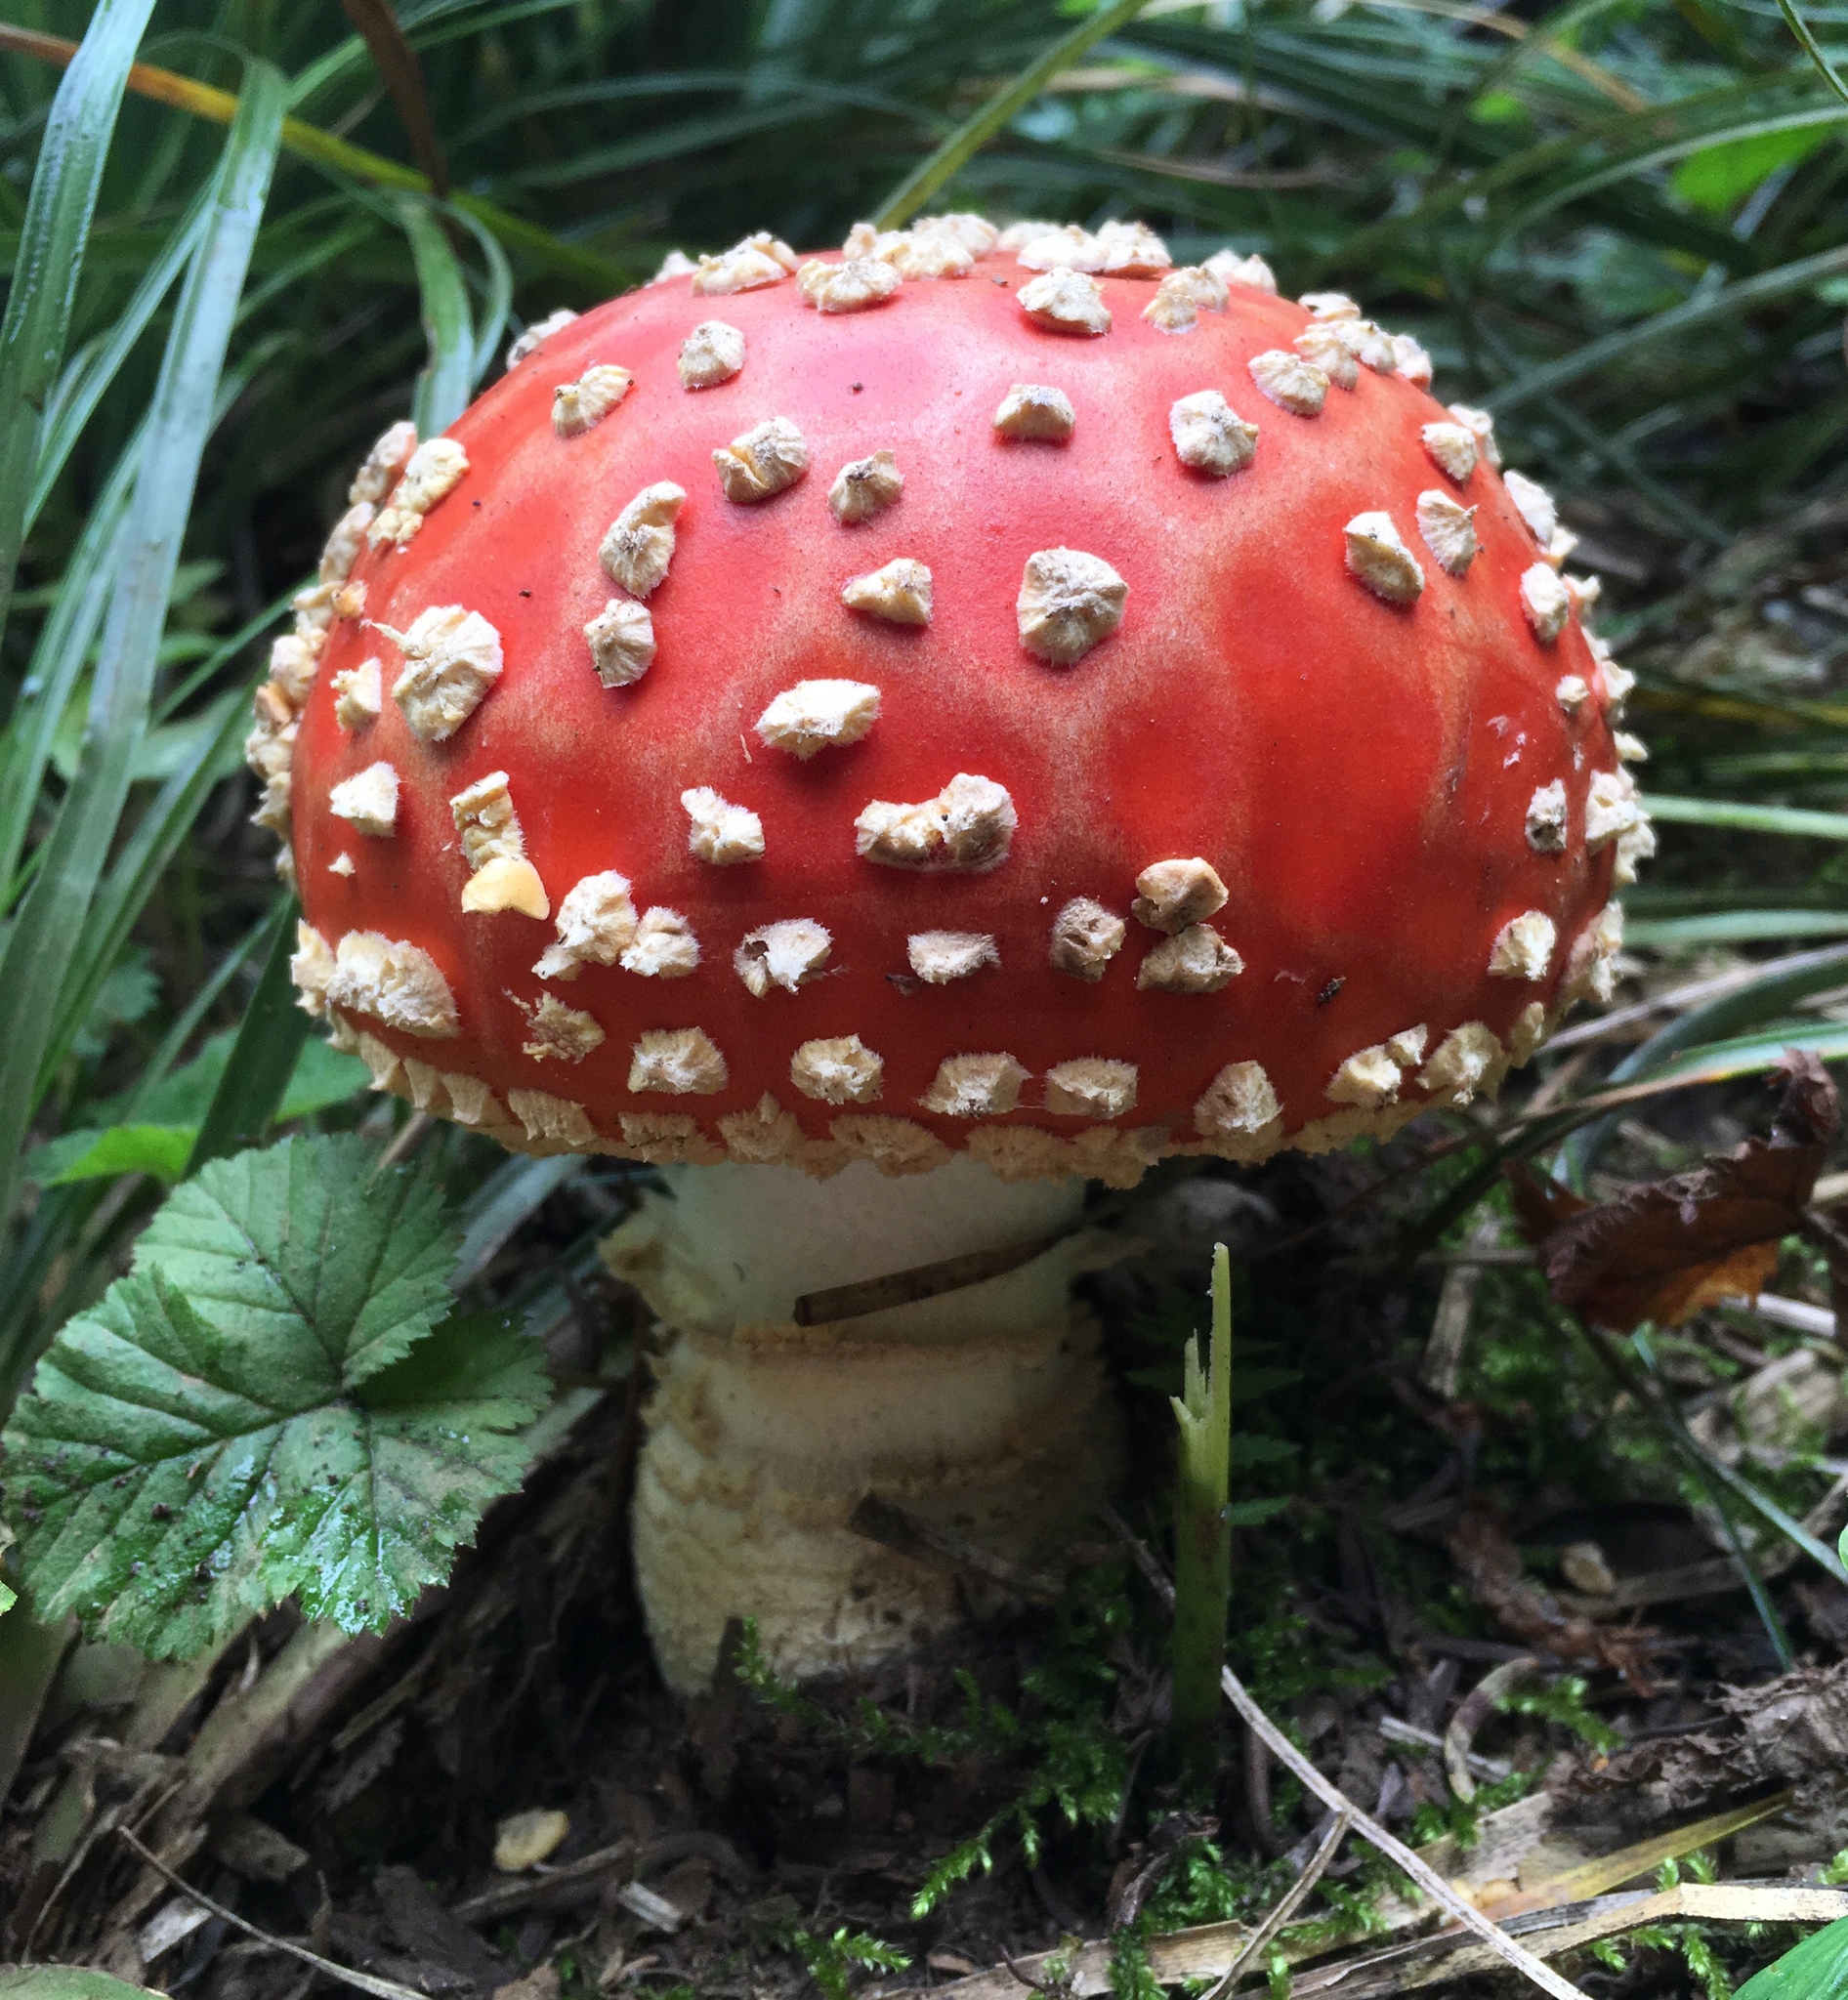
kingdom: Fungi
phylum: Basidiomycota
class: Agaricomycetes
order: Agaricales
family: Amanitaceae
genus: Amanita
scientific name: Amanita muscaria
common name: Fly agaric
